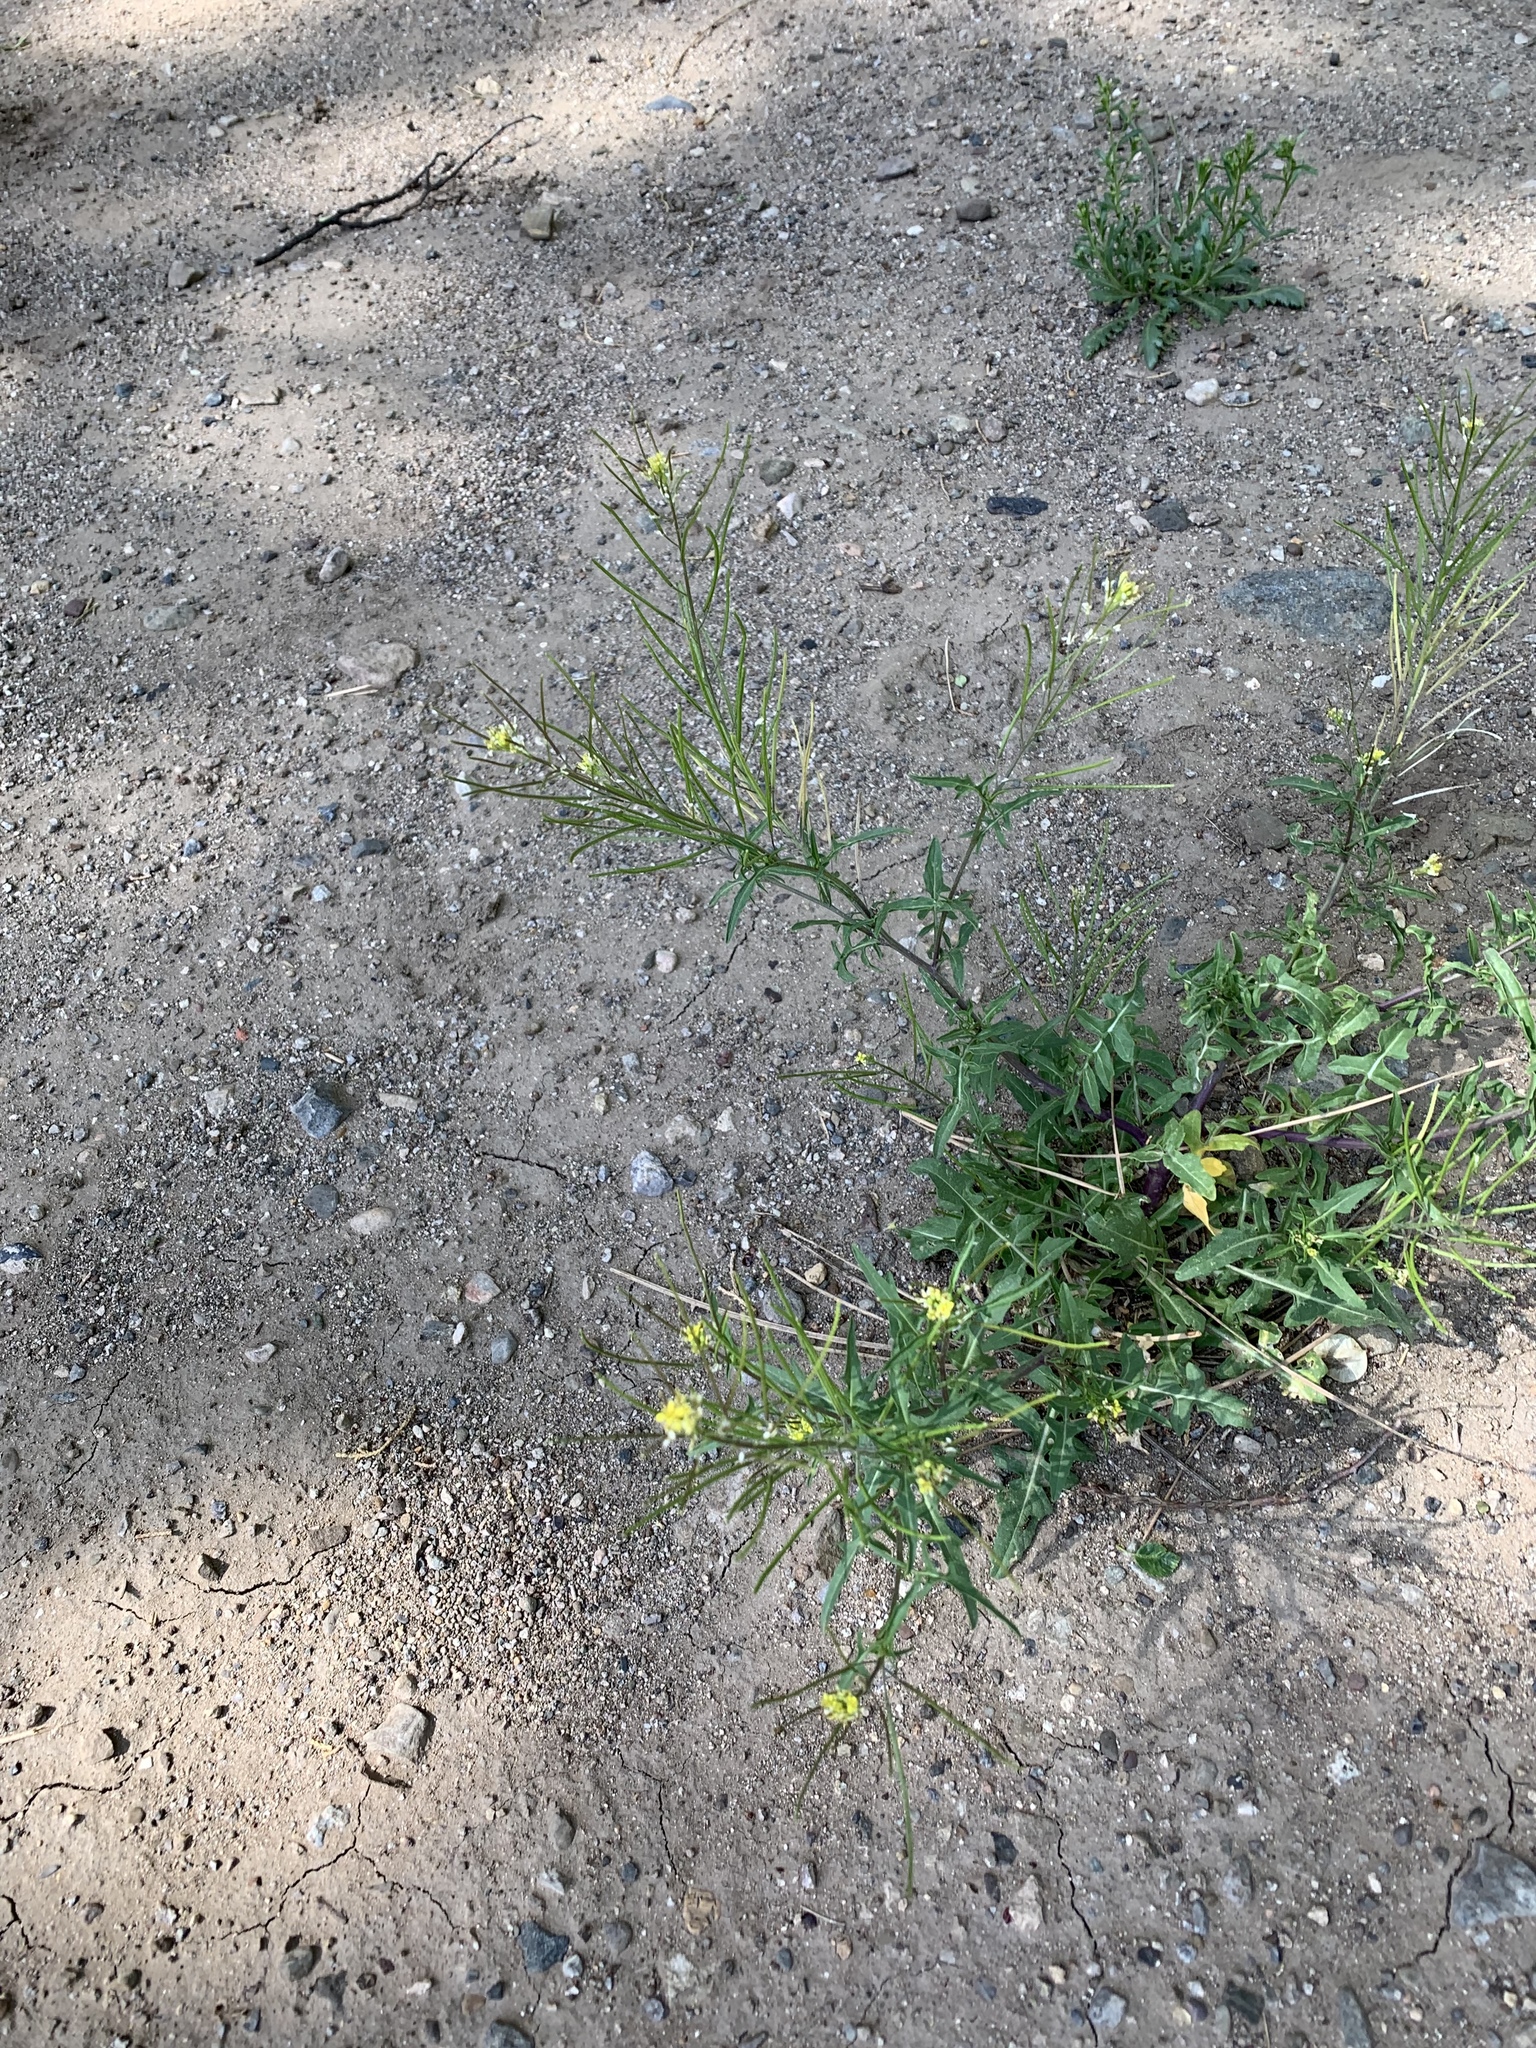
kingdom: Plantae
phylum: Tracheophyta
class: Magnoliopsida
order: Brassicales
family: Brassicaceae
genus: Sisymbrium
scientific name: Sisymbrium irio
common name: London rocket
